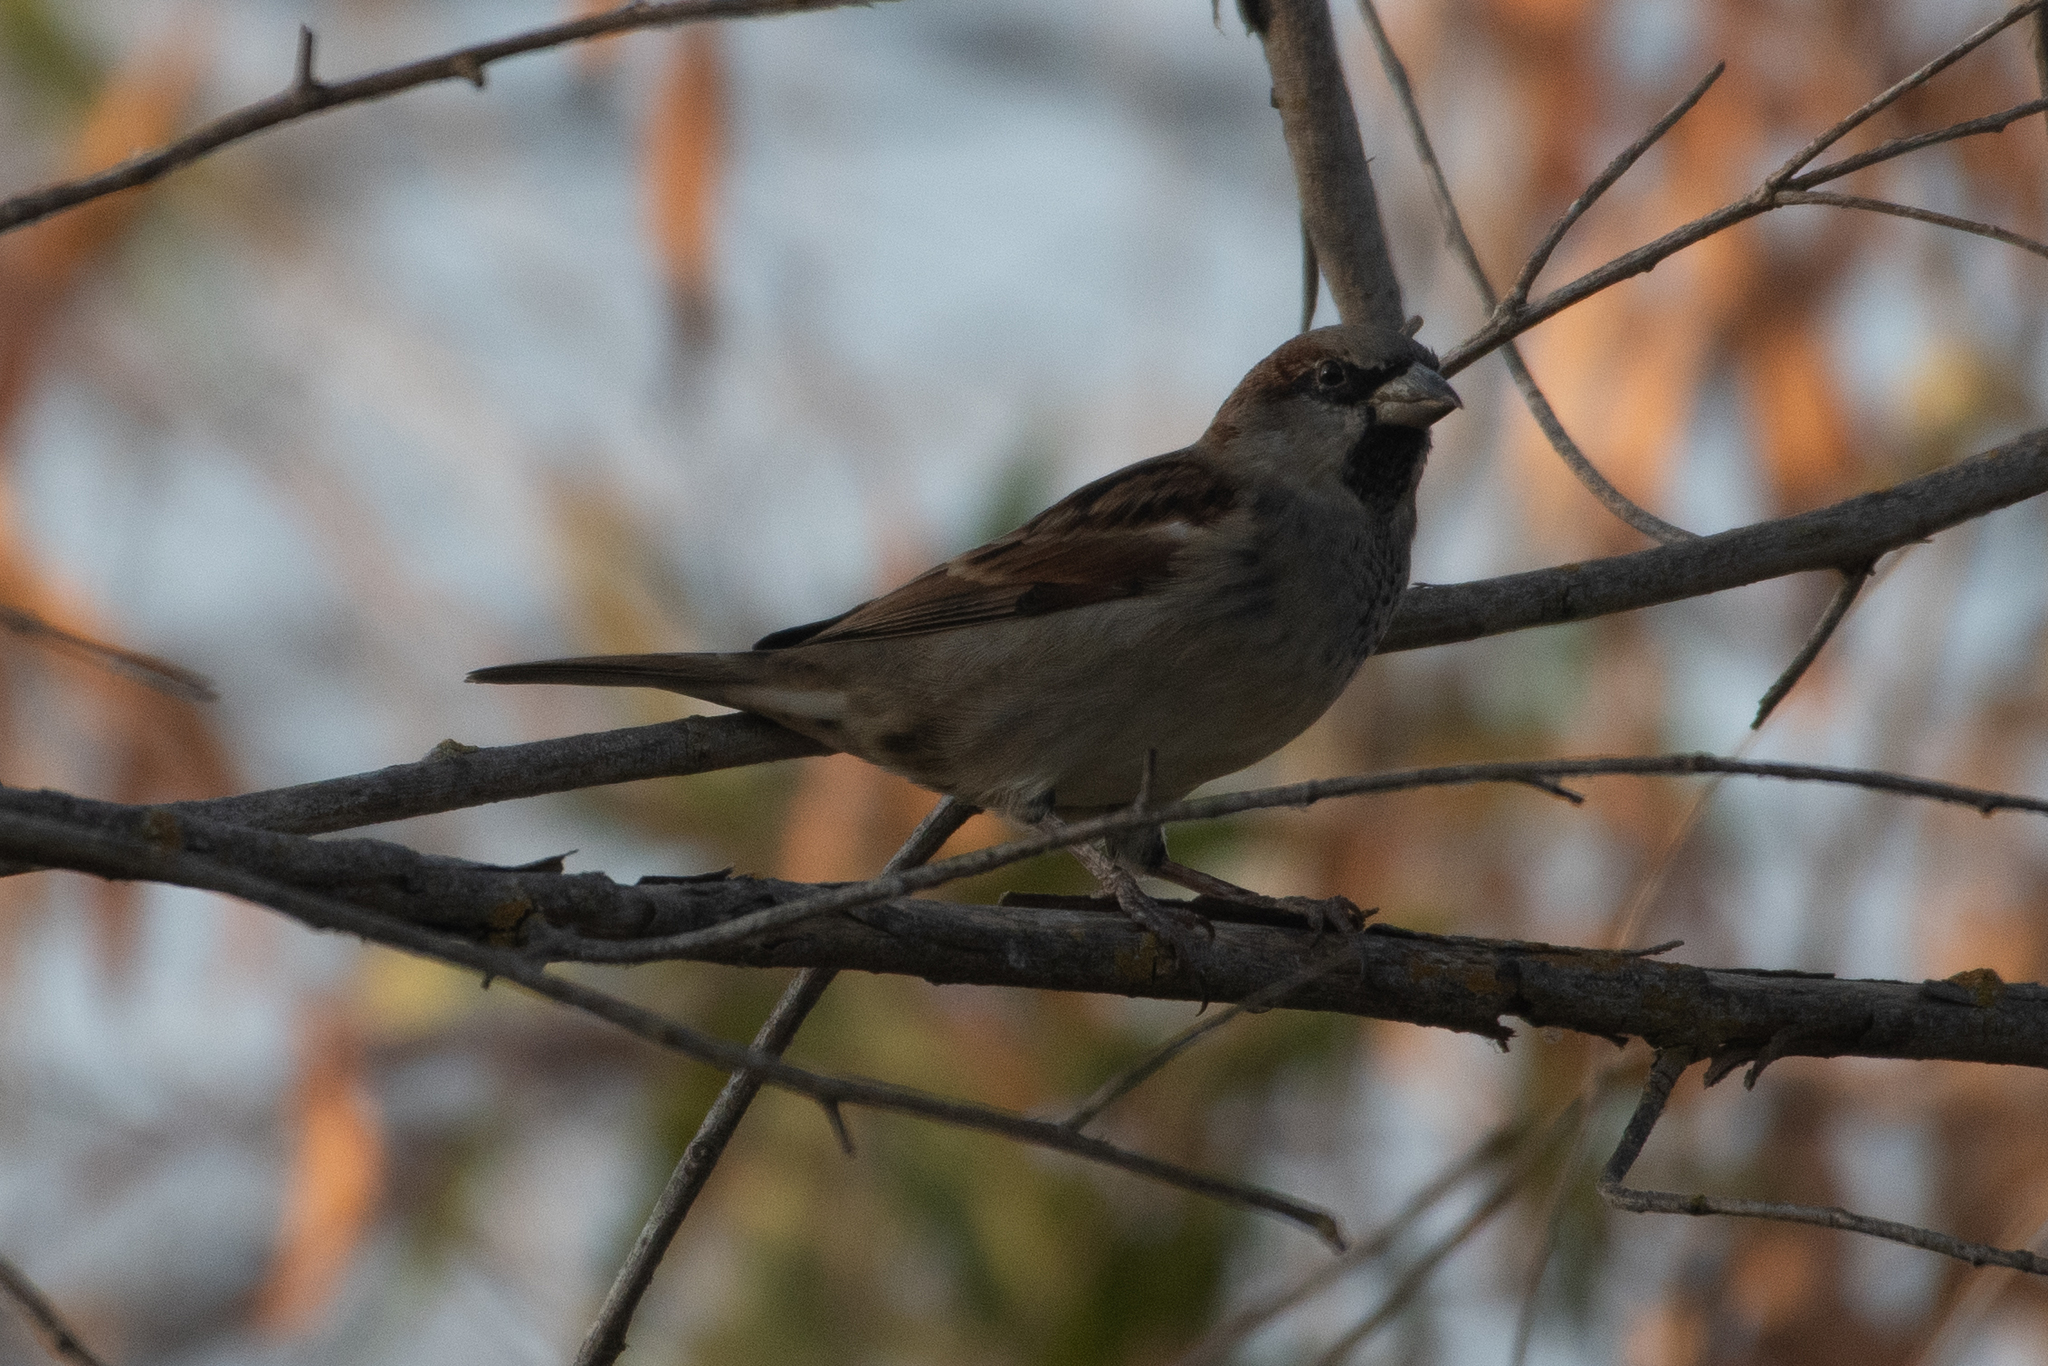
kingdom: Animalia
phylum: Chordata
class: Aves
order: Passeriformes
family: Passeridae
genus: Passer
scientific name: Passer domesticus
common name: House sparrow
